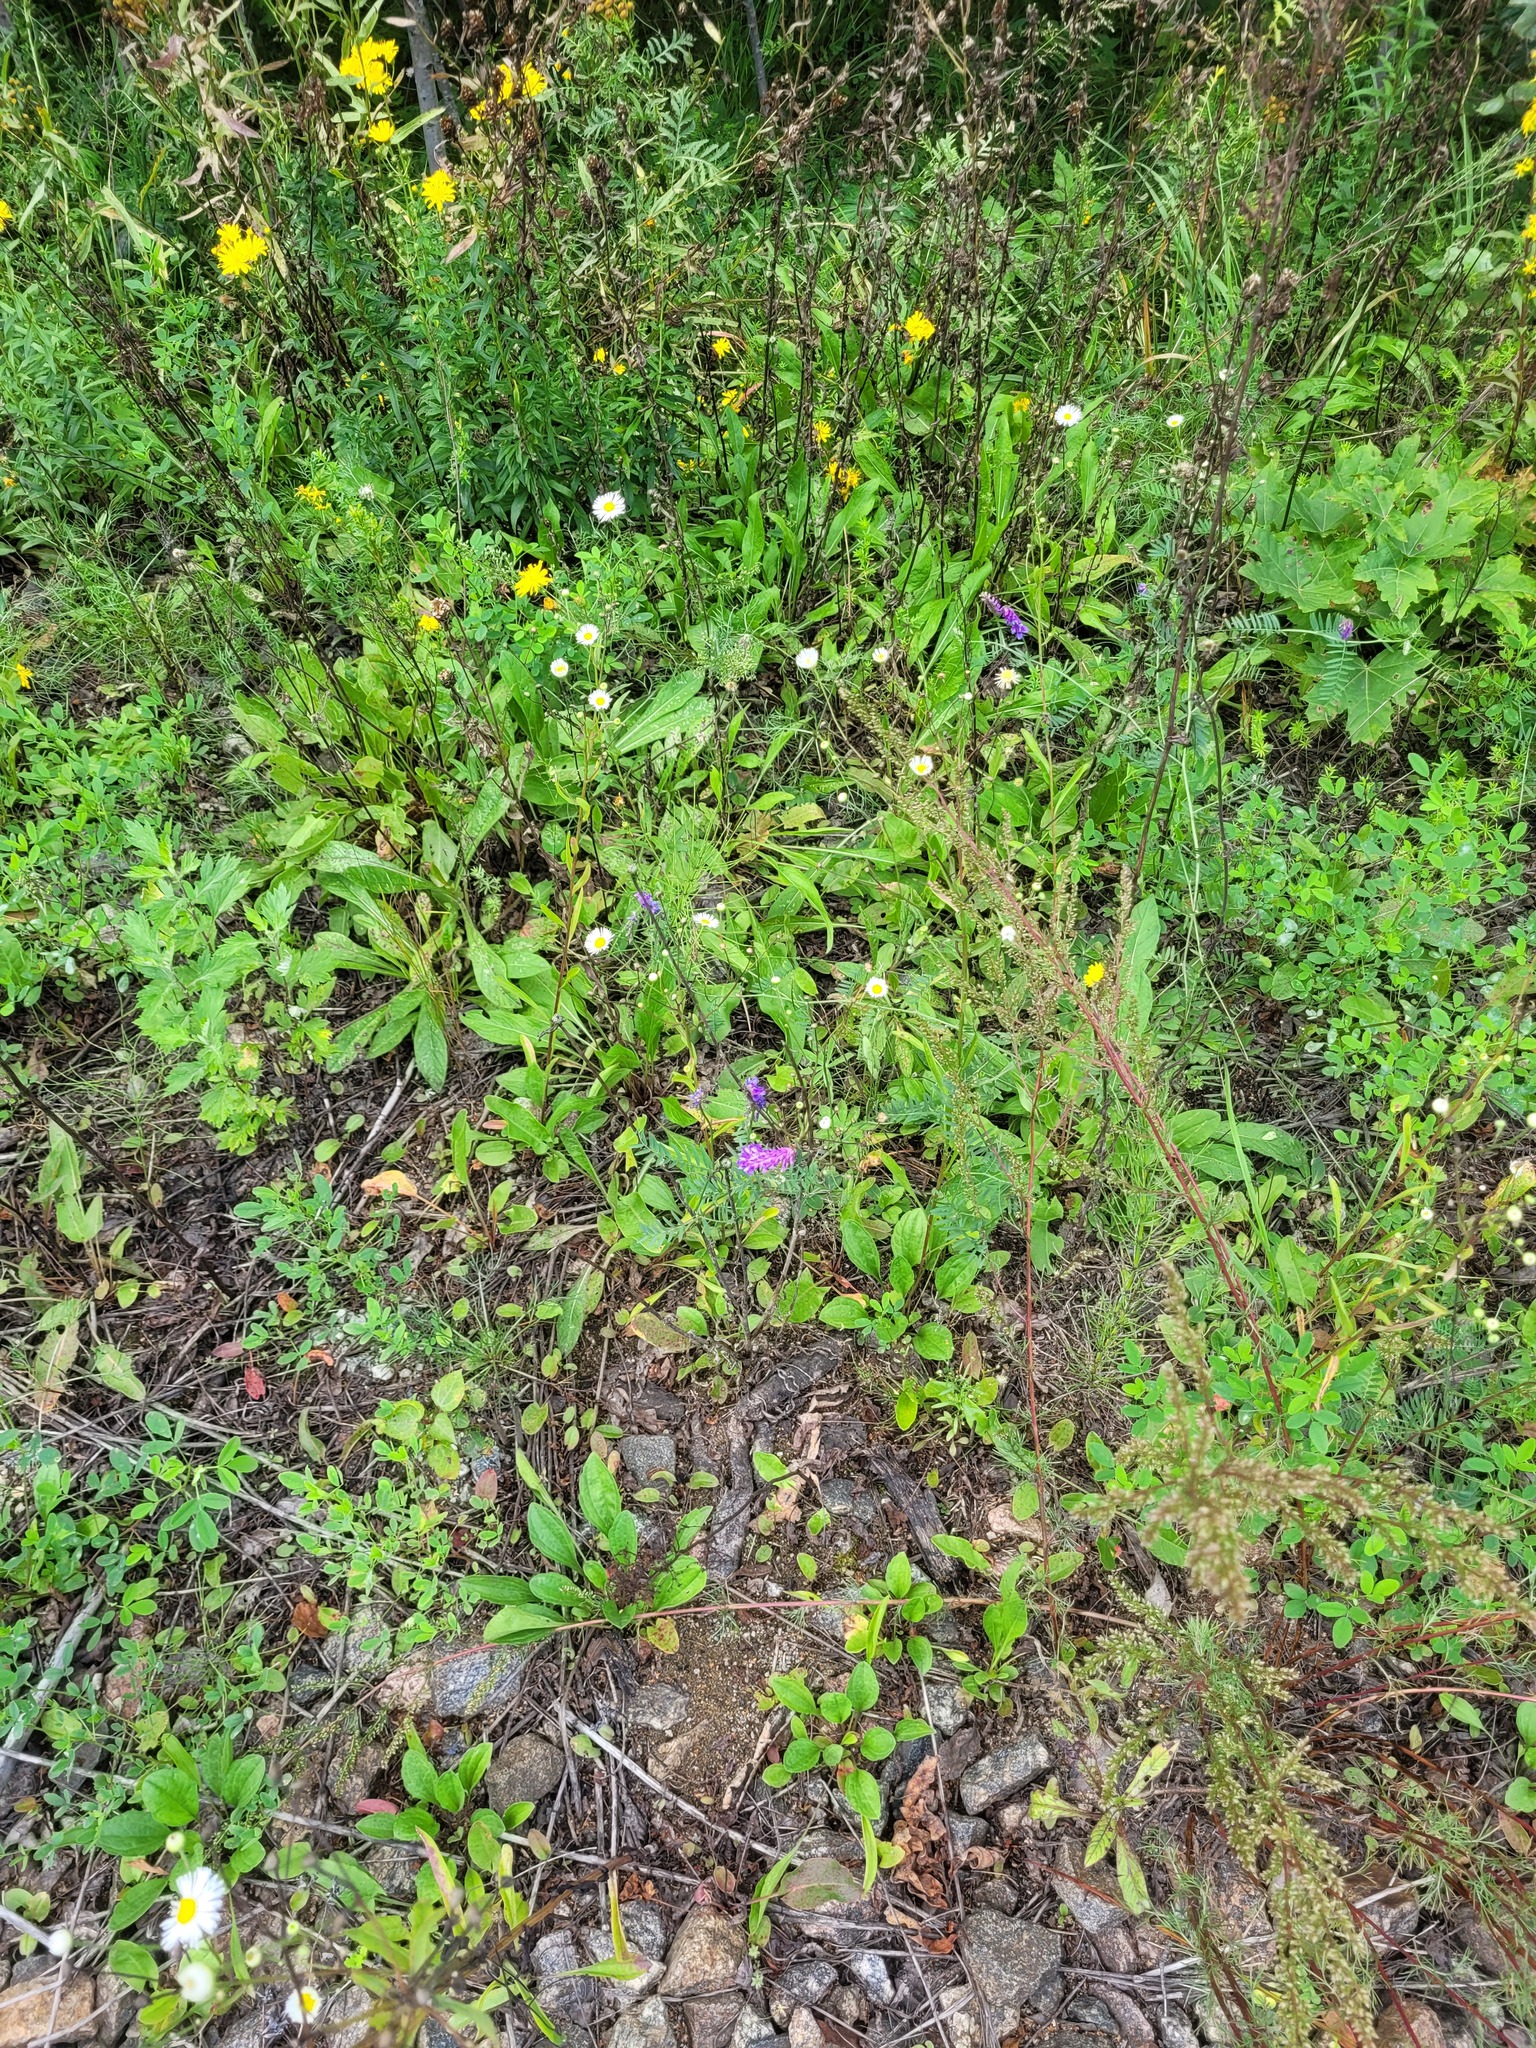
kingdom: Plantae
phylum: Tracheophyta
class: Magnoliopsida
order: Fabales
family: Fabaceae
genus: Vicia
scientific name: Vicia cracca
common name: Bird vetch
